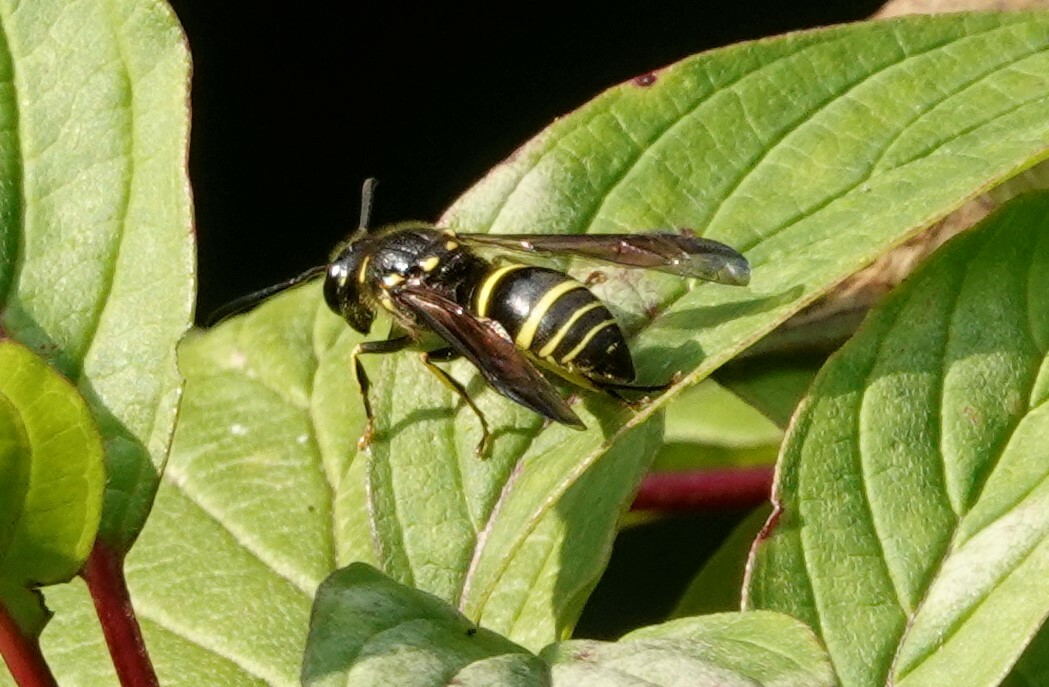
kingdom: Animalia
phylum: Arthropoda
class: Insecta
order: Hymenoptera
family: Vespidae
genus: Ancistrocerus
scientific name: Ancistrocerus
